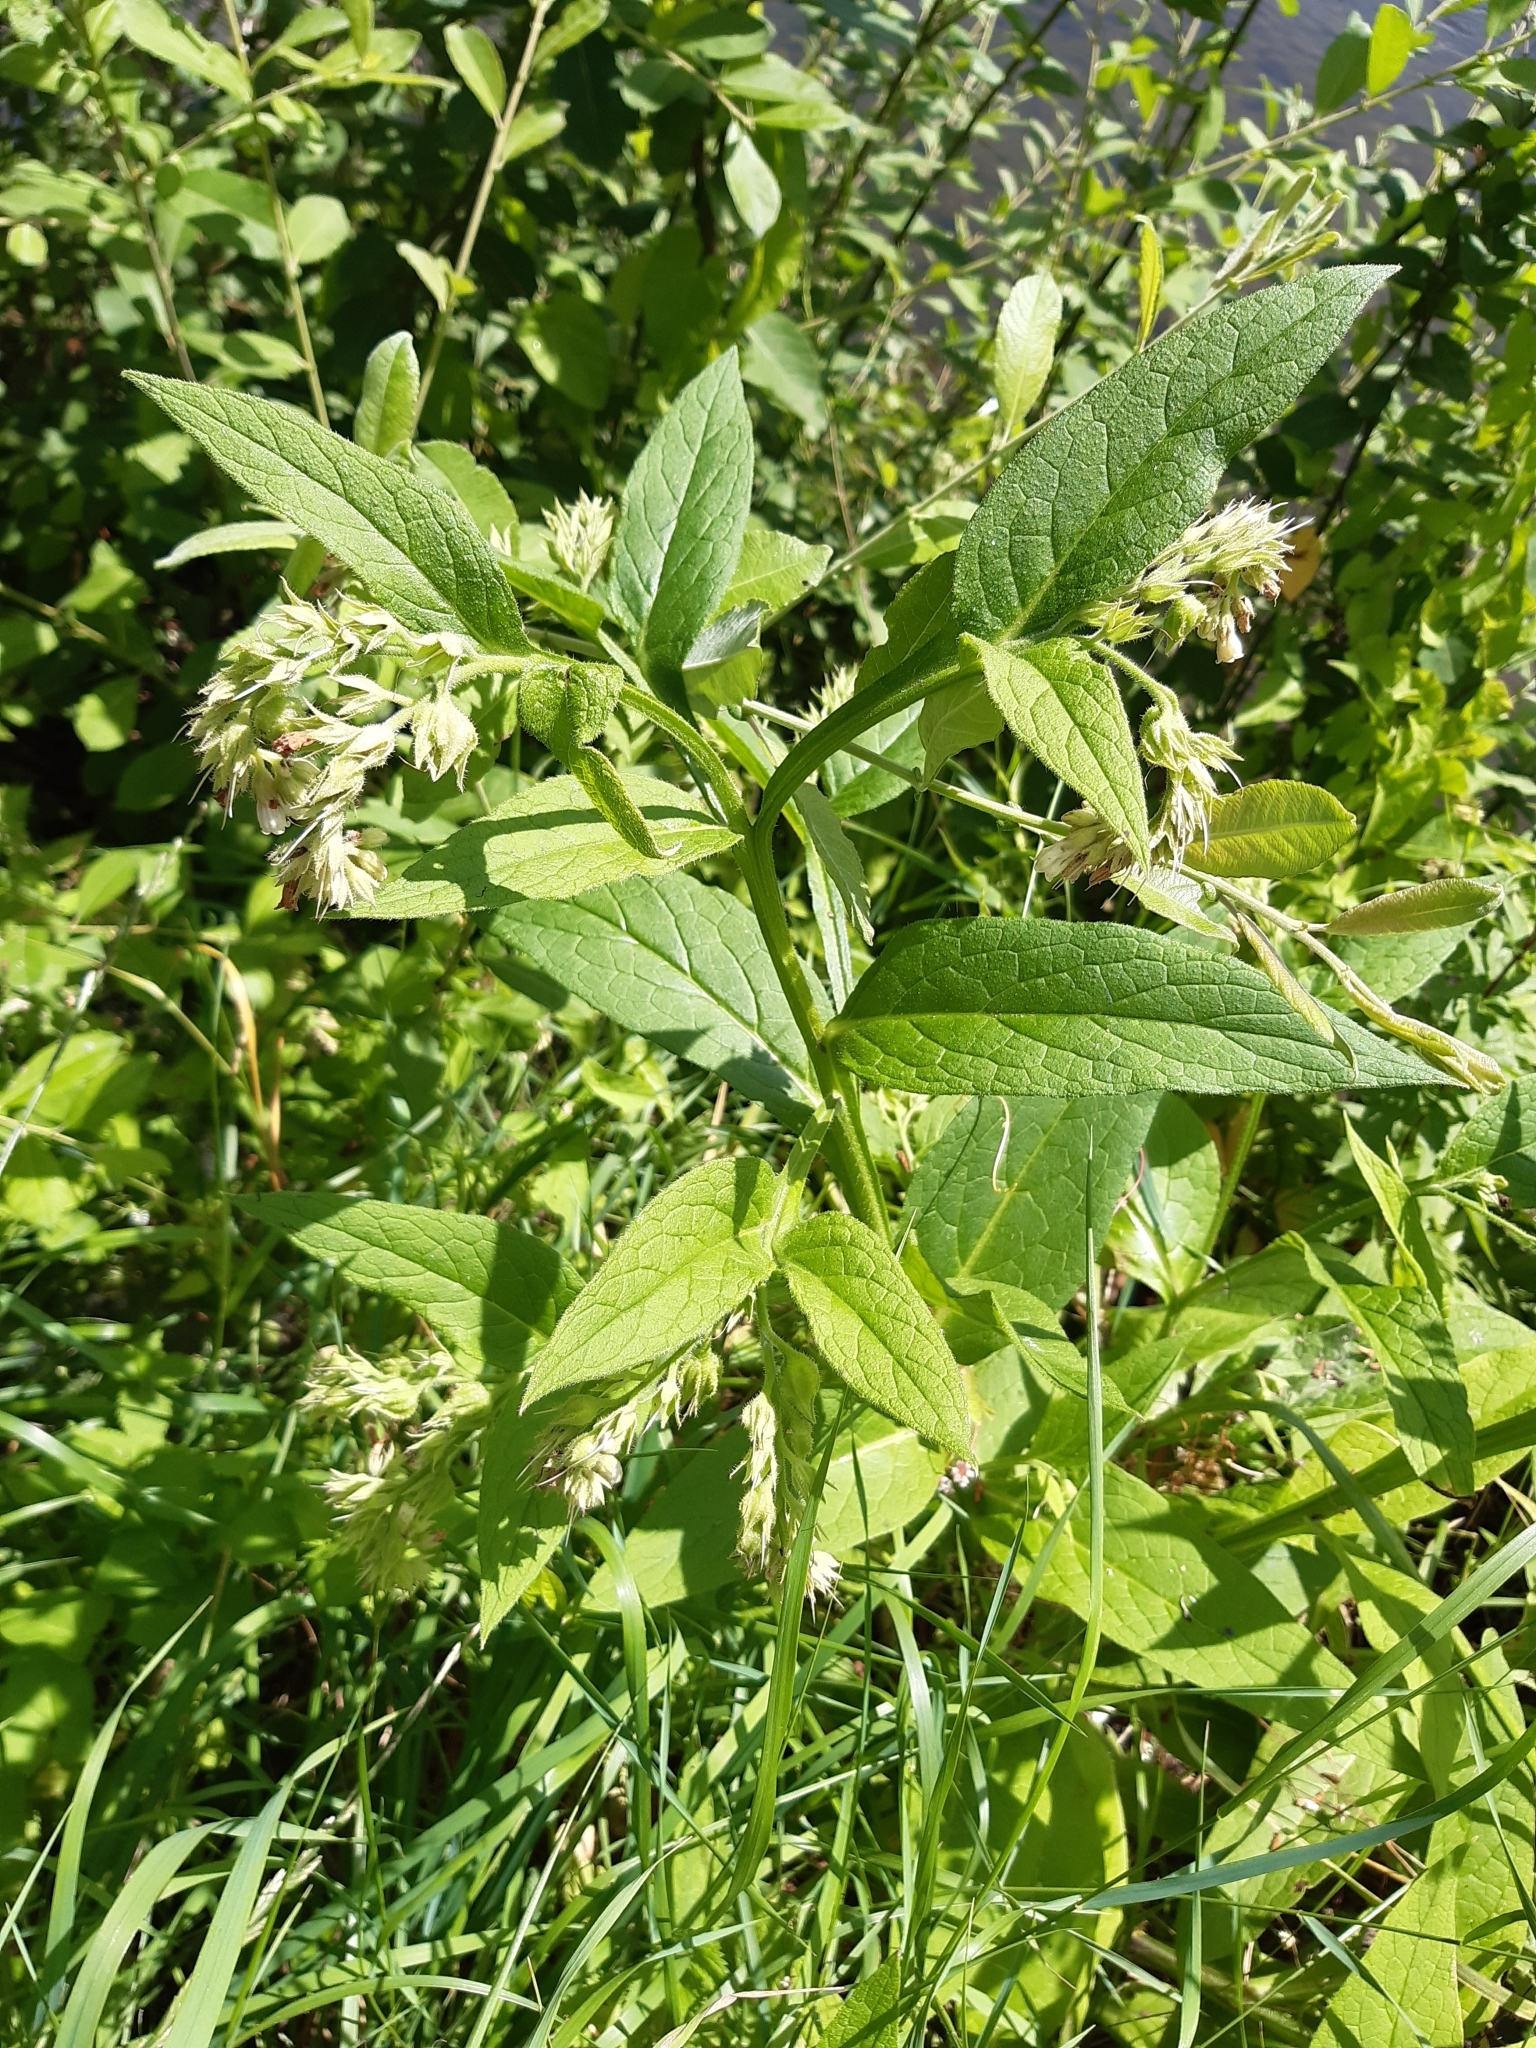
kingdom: Plantae
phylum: Tracheophyta
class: Magnoliopsida
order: Boraginales
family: Boraginaceae
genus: Symphytum
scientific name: Symphytum officinale
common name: Common comfrey
